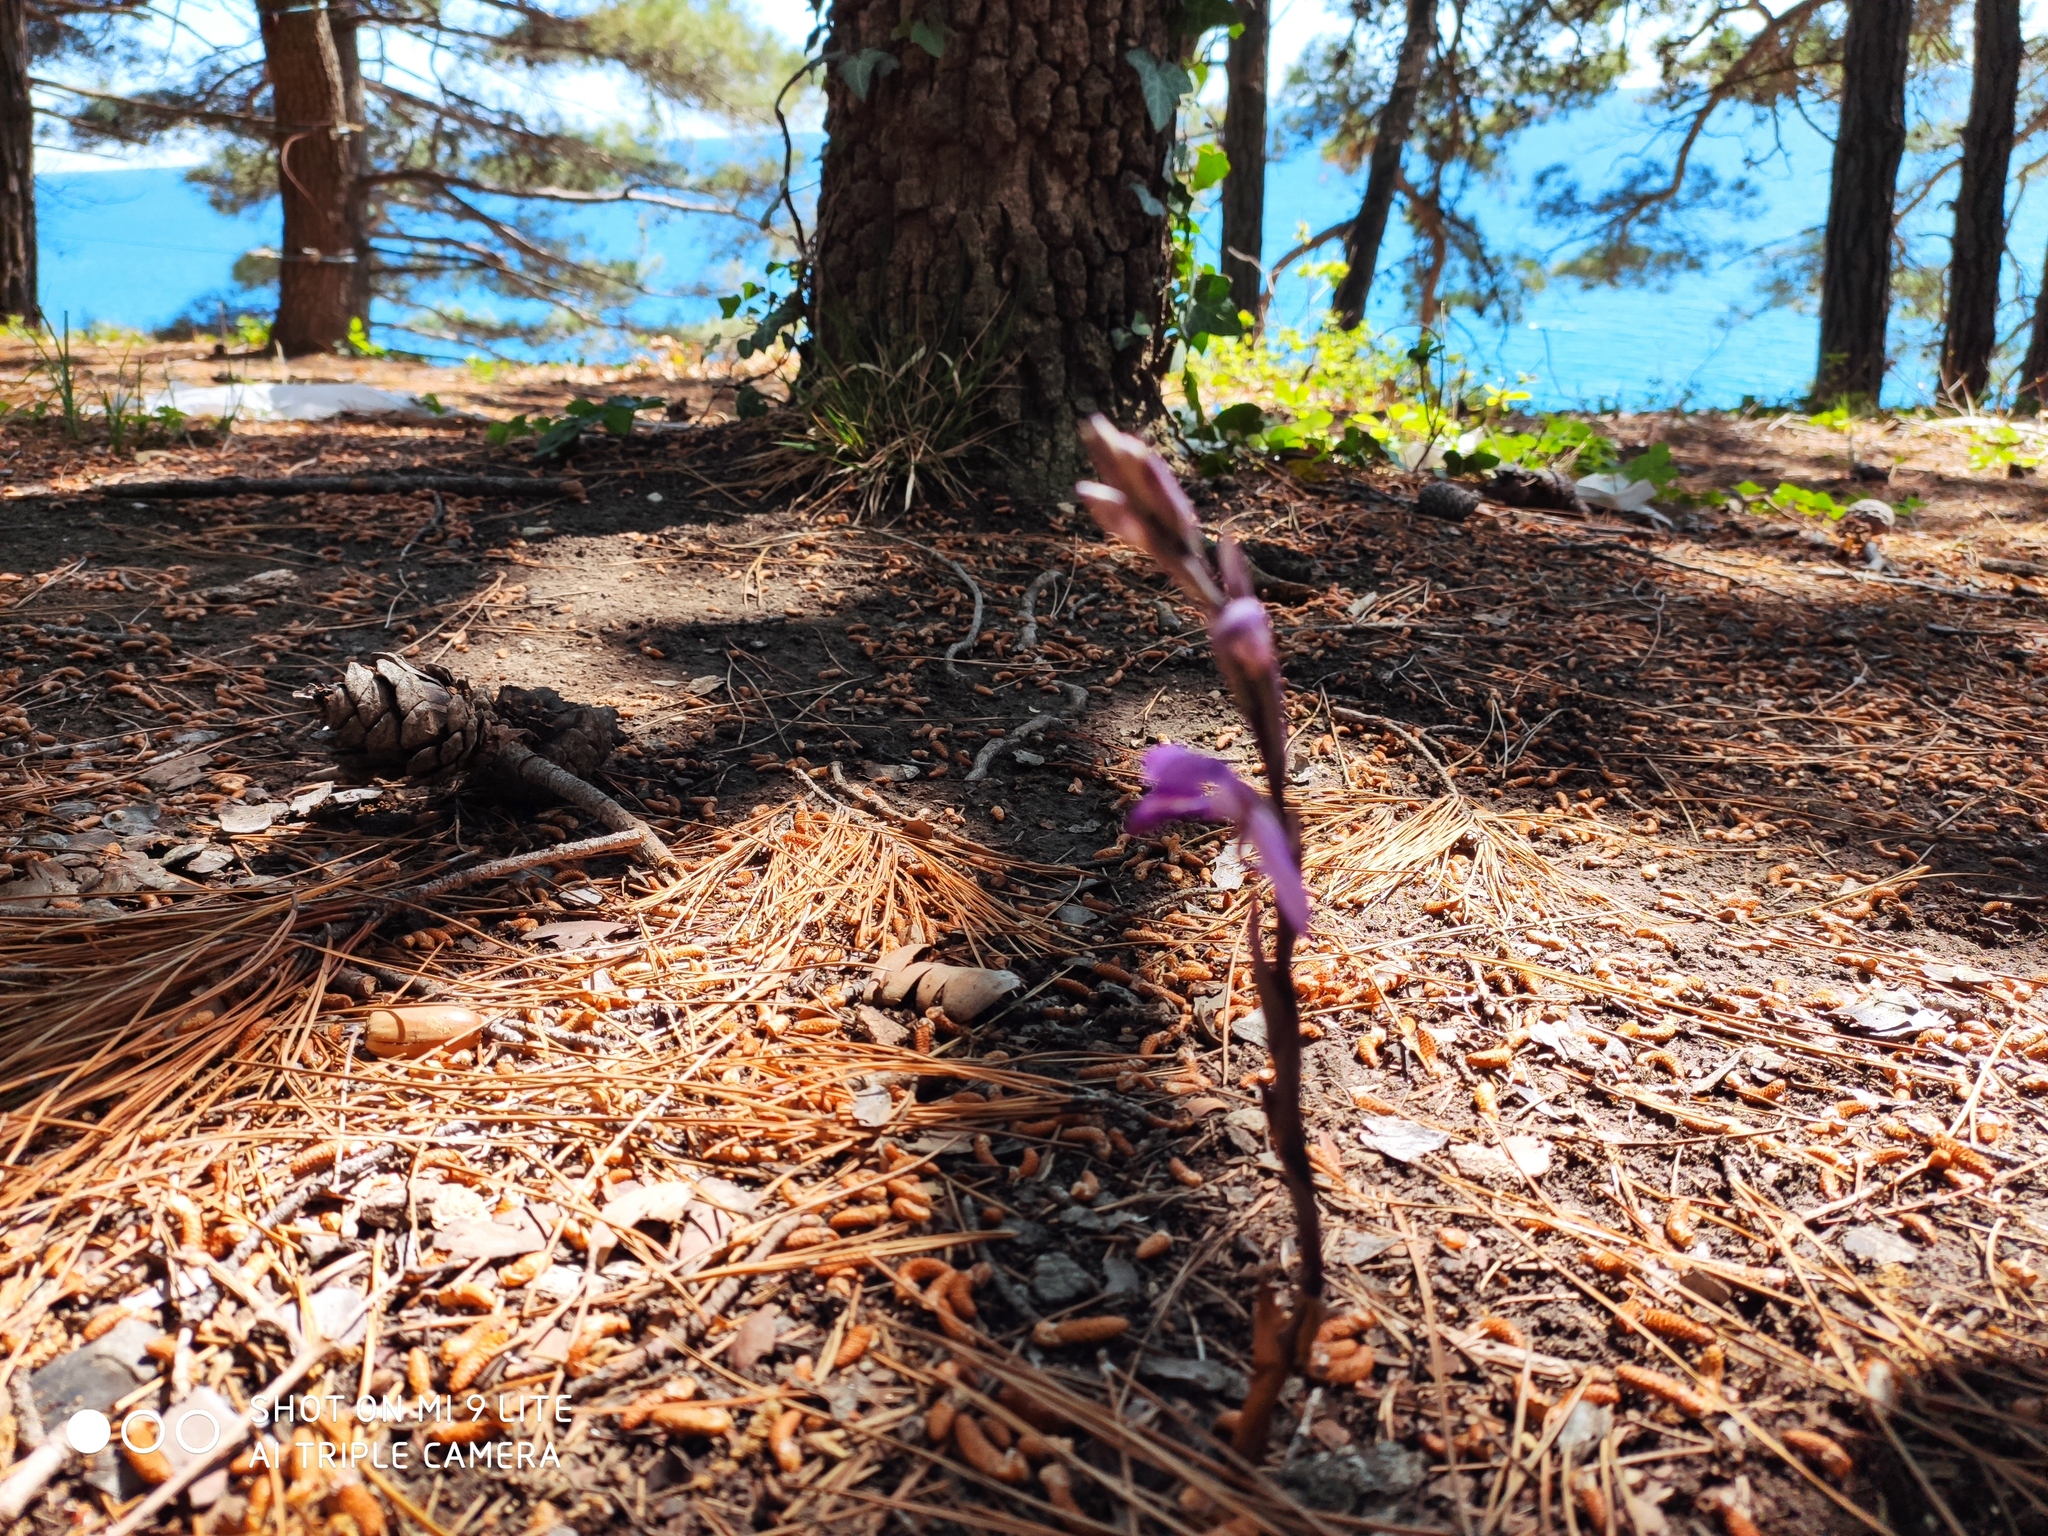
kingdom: Plantae
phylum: Tracheophyta
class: Liliopsida
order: Asparagales
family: Orchidaceae
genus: Limodorum
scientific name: Limodorum abortivum
